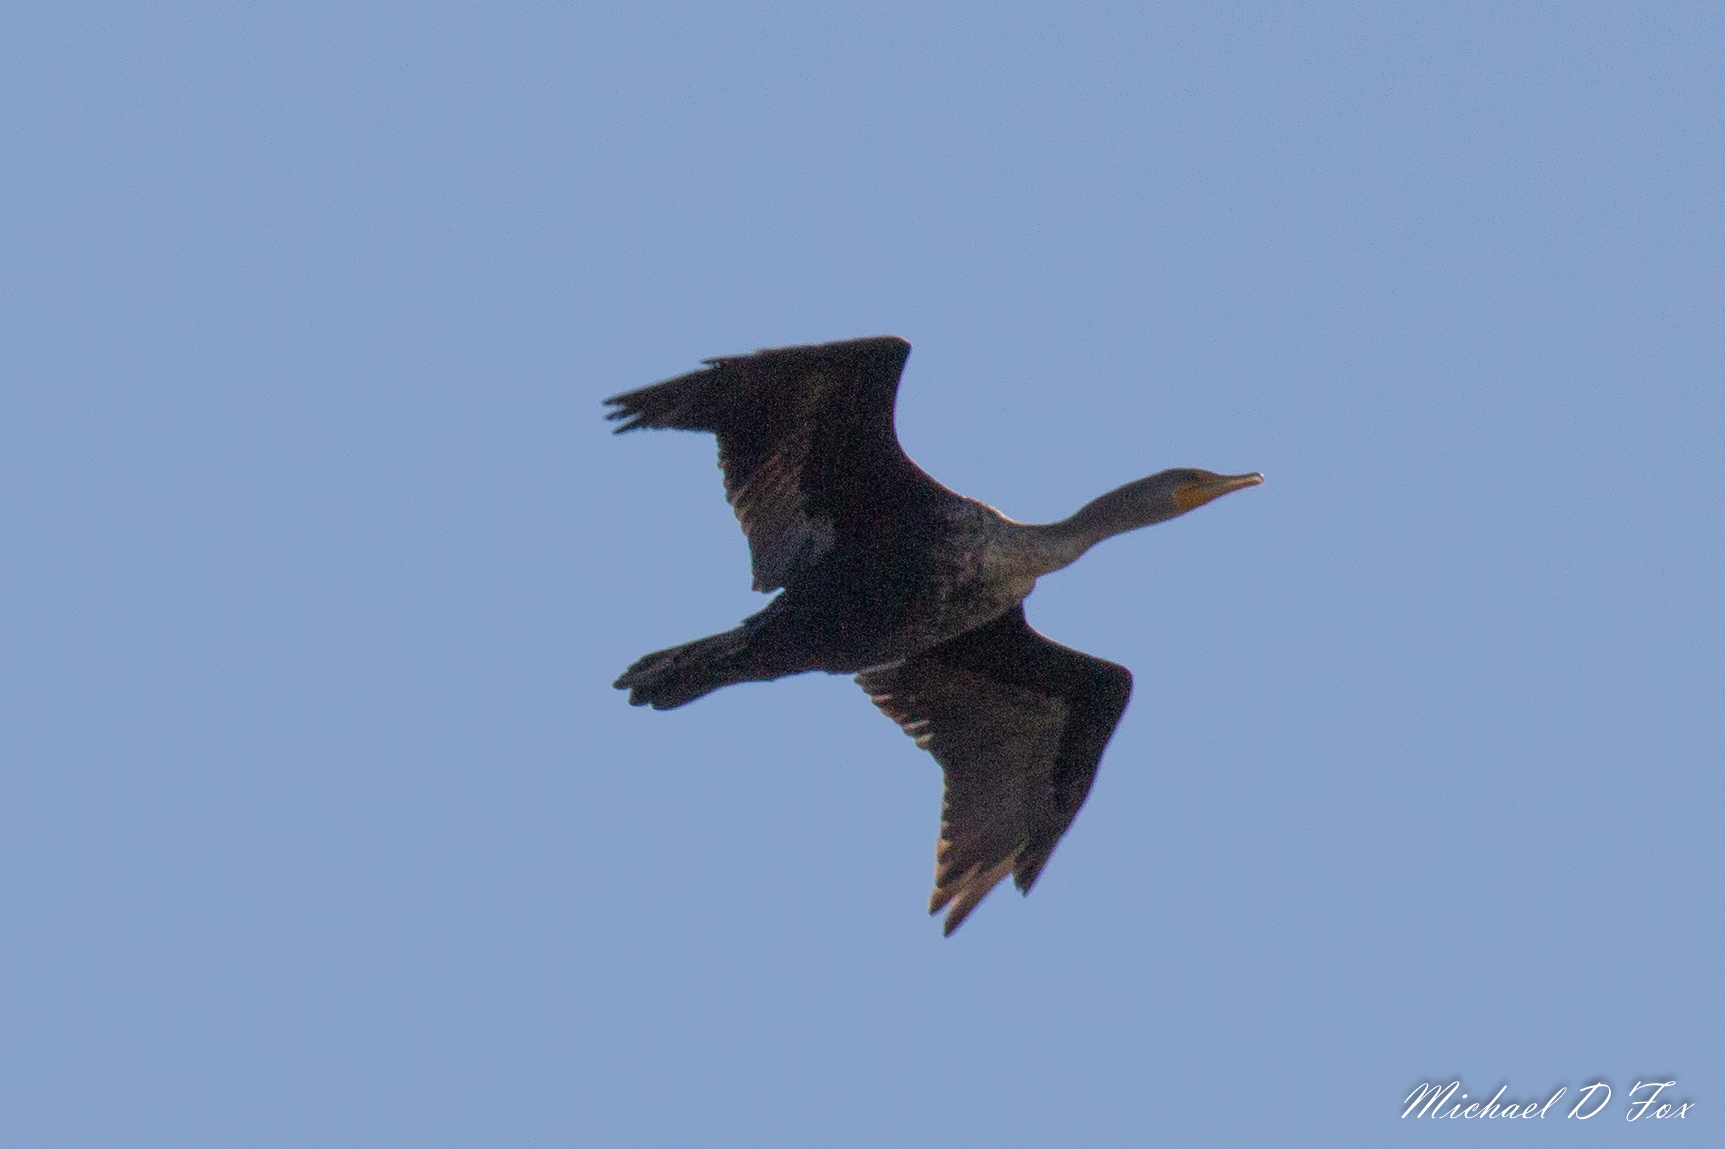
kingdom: Animalia
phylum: Chordata
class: Aves
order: Suliformes
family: Phalacrocoracidae
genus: Phalacrocorax
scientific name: Phalacrocorax auritus
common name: Double-crested cormorant
